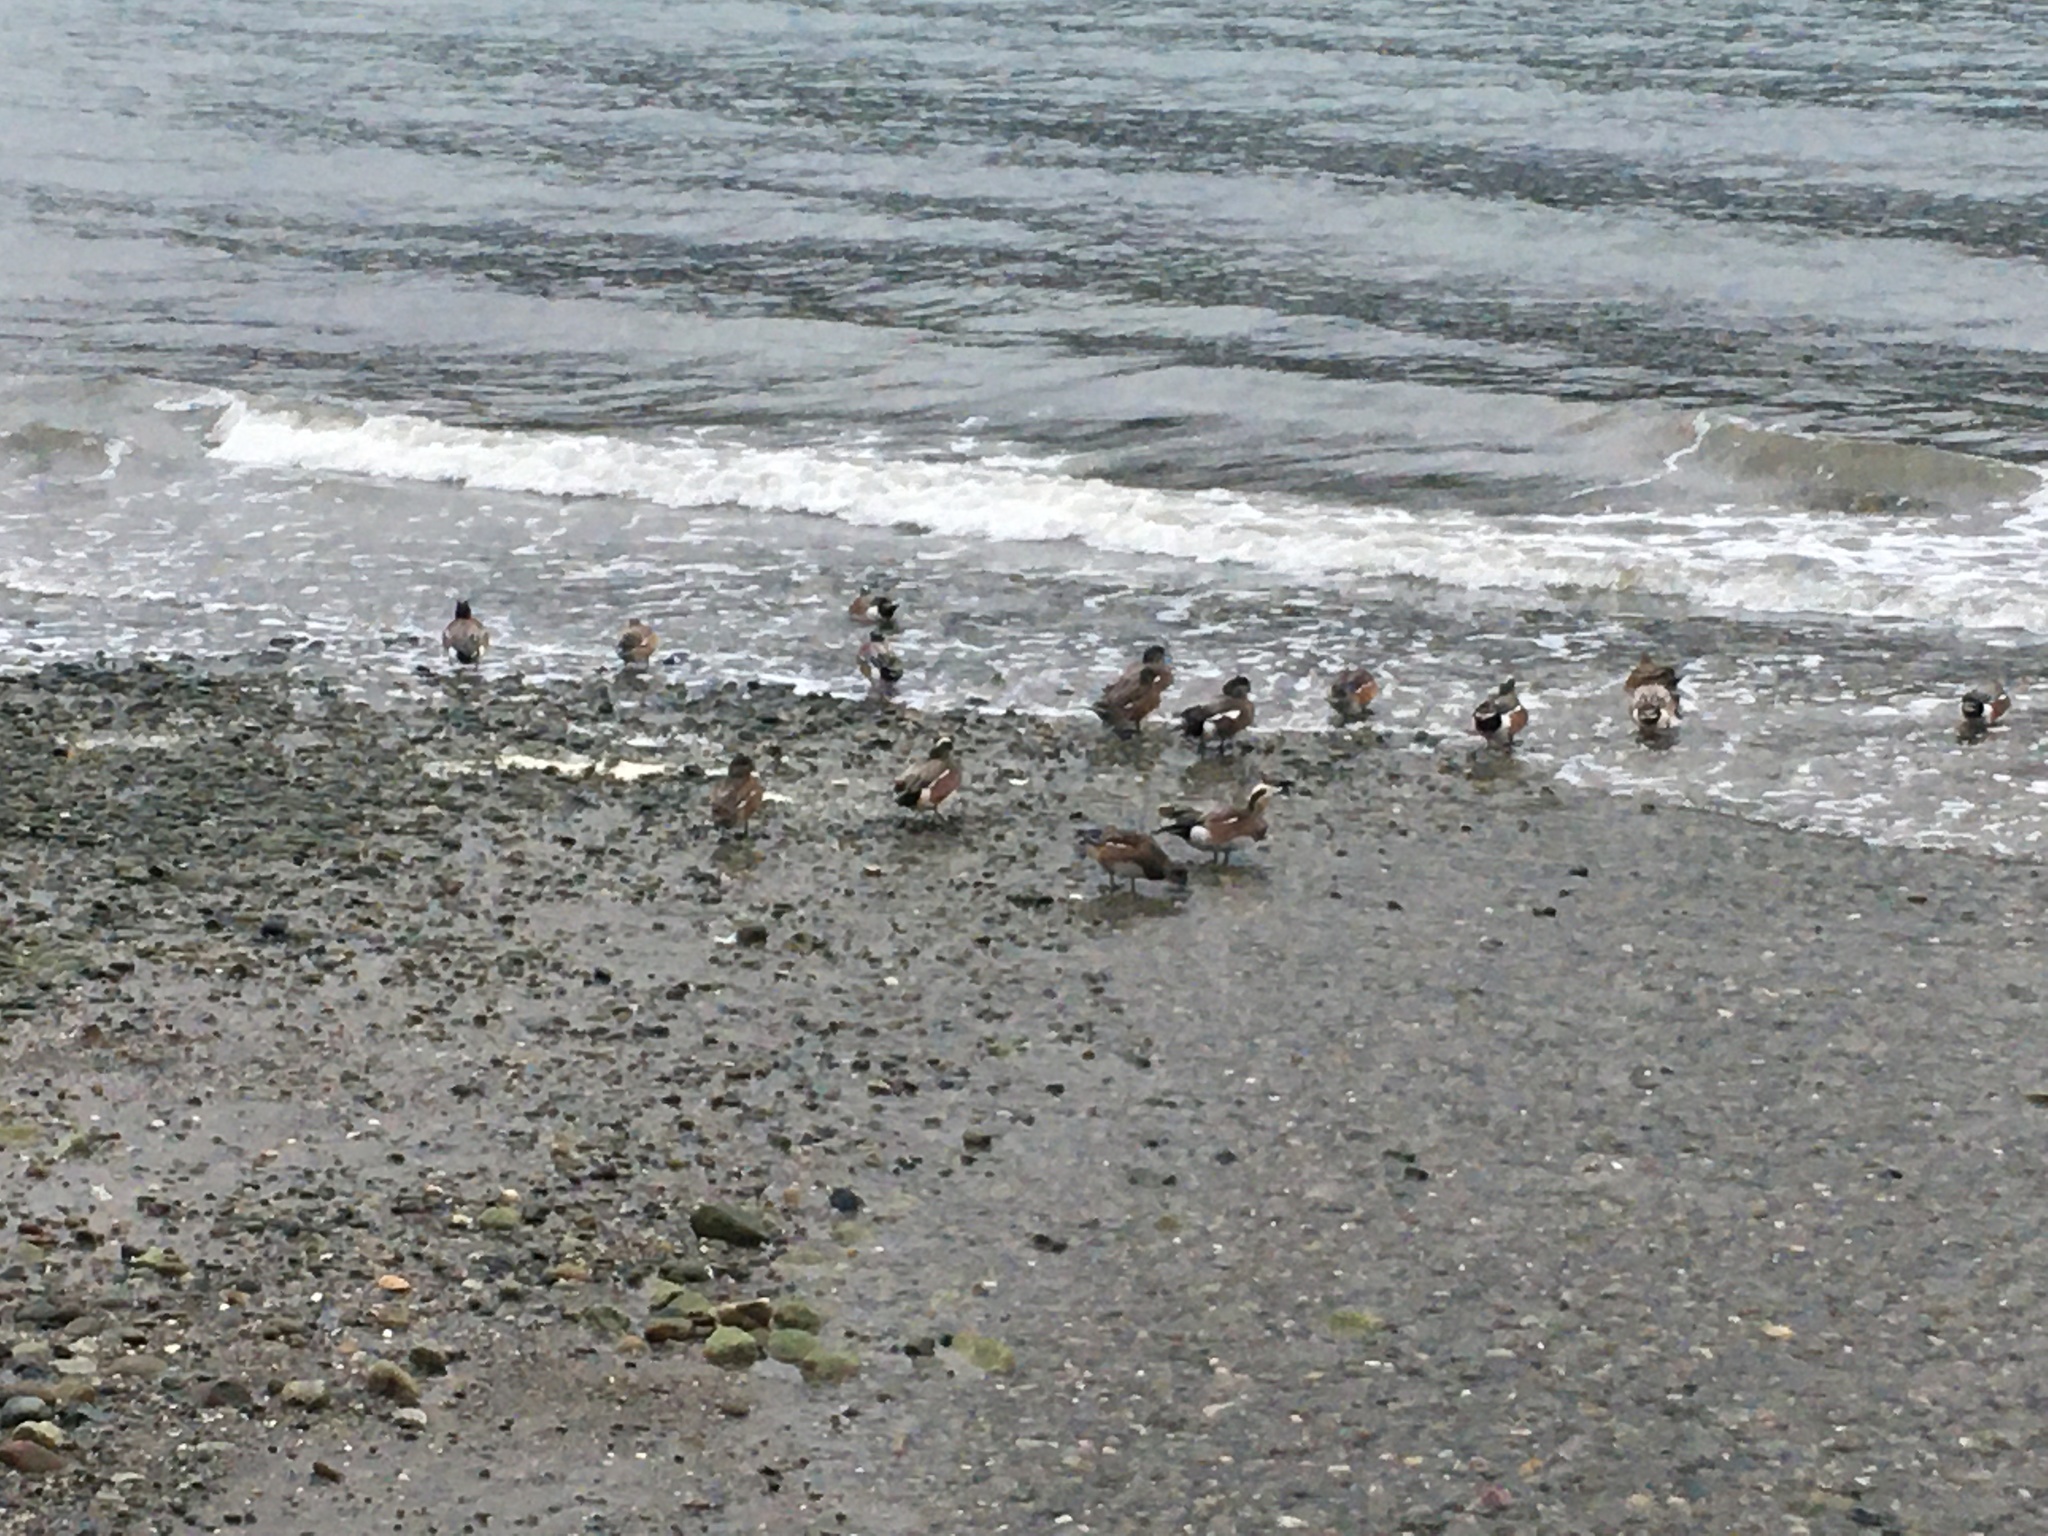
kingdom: Animalia
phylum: Chordata
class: Aves
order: Anseriformes
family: Anatidae
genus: Mareca
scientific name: Mareca americana
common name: American wigeon
